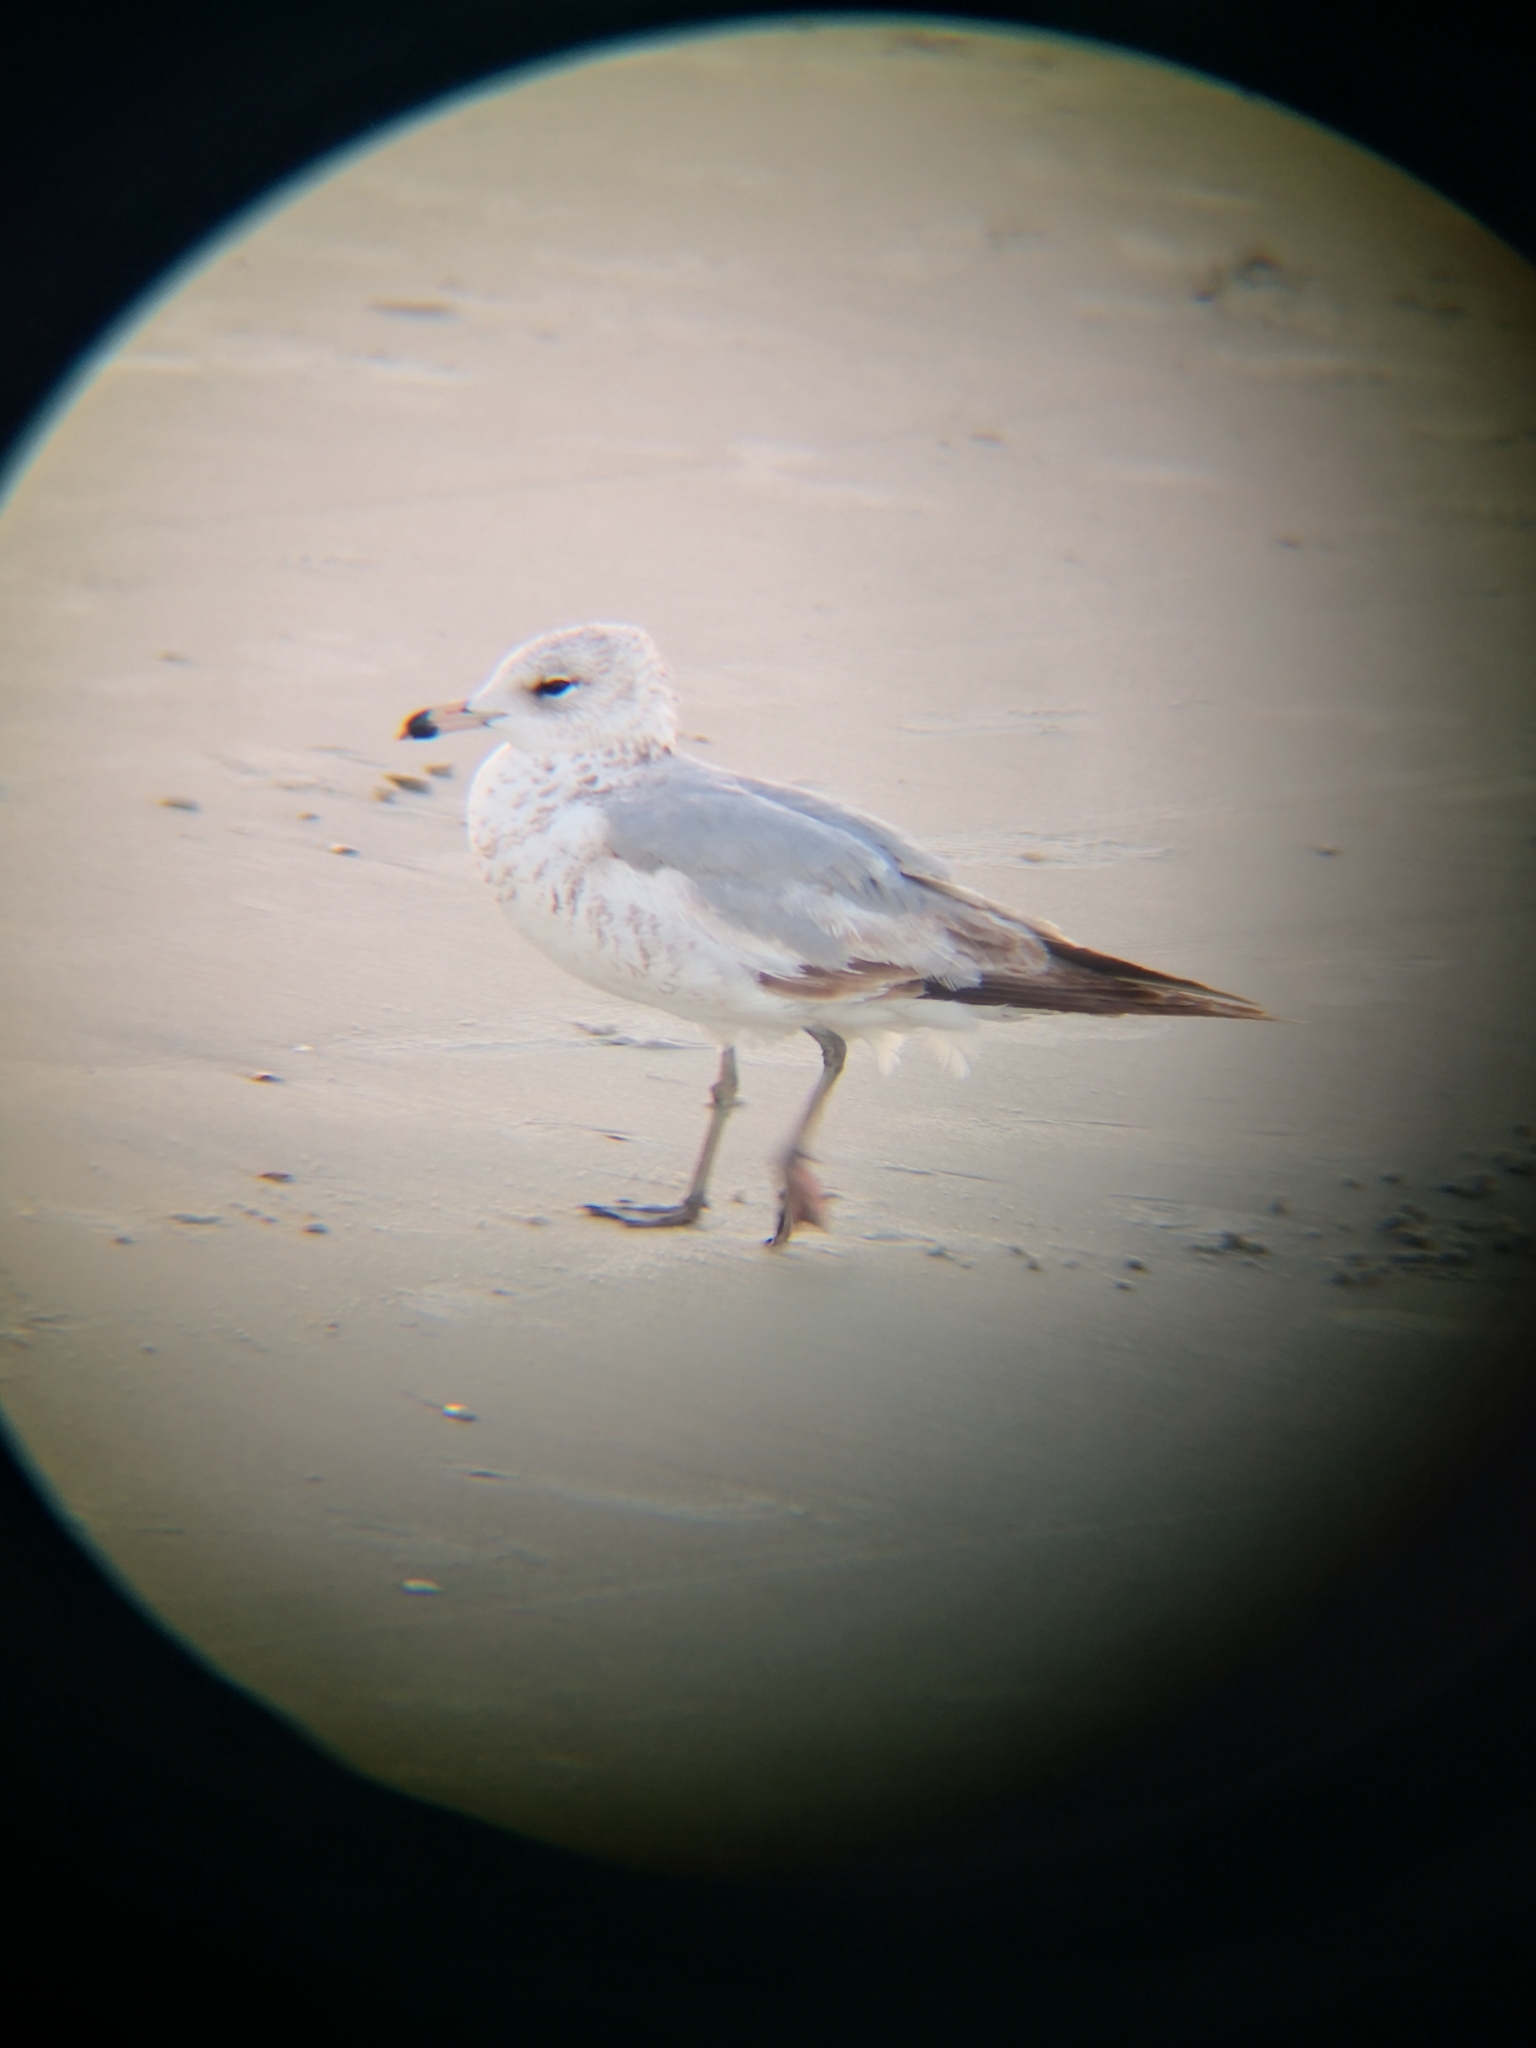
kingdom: Animalia
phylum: Chordata
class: Aves
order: Charadriiformes
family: Laridae
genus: Larus
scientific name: Larus delawarensis
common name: Ring-billed gull
